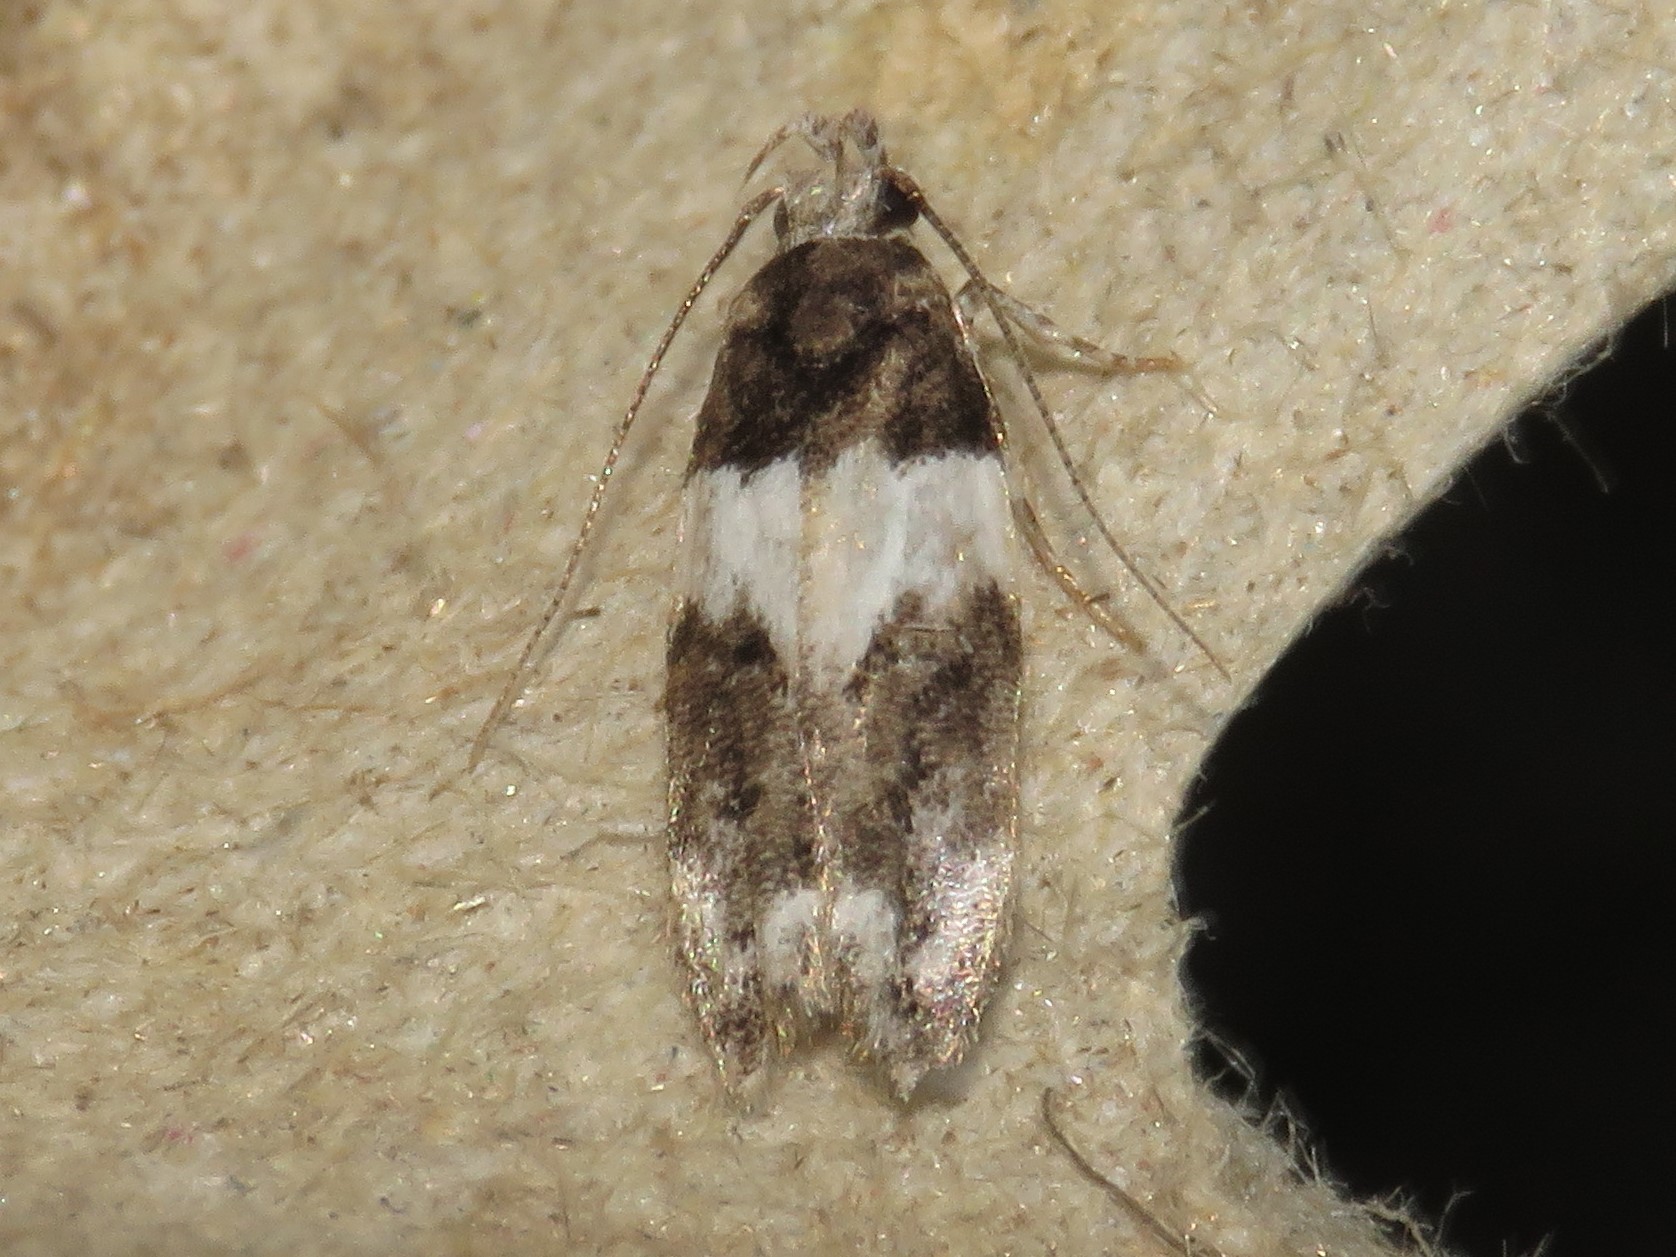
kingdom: Animalia
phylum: Arthropoda
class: Insecta
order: Lepidoptera
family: Gelechiidae
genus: Pubitelphusa
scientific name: Pubitelphusa latifasciella
